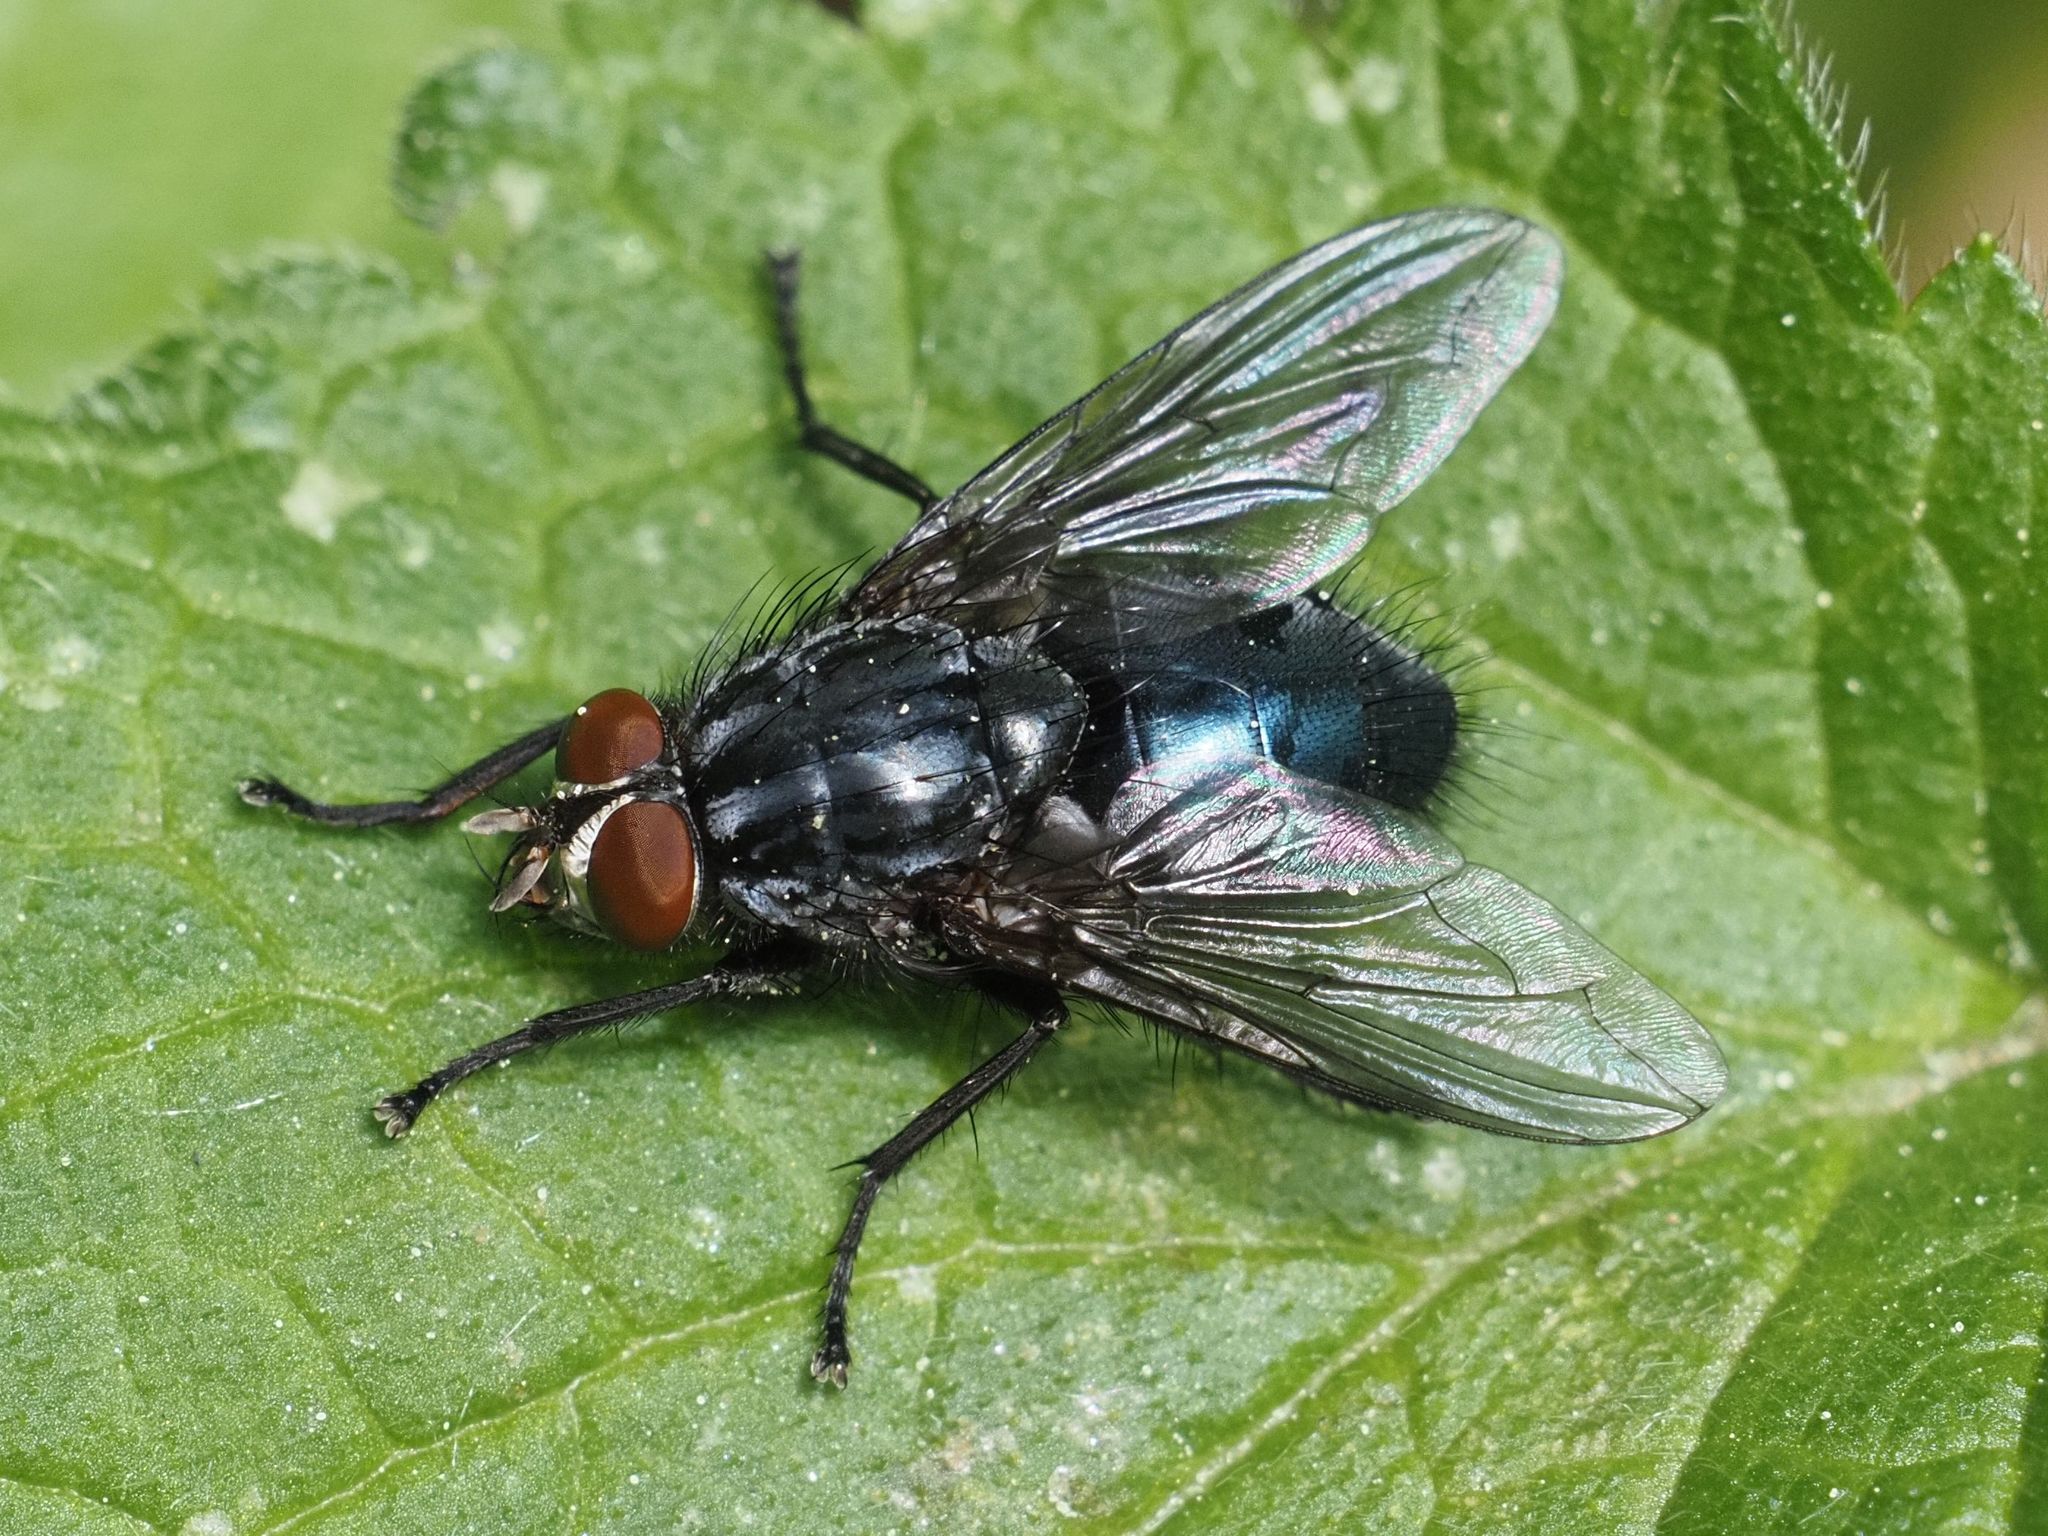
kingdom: Animalia
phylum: Arthropoda
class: Insecta
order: Diptera
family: Calliphoridae
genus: Calliphora
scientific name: Calliphora subalpina
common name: Woodland bluebottle
